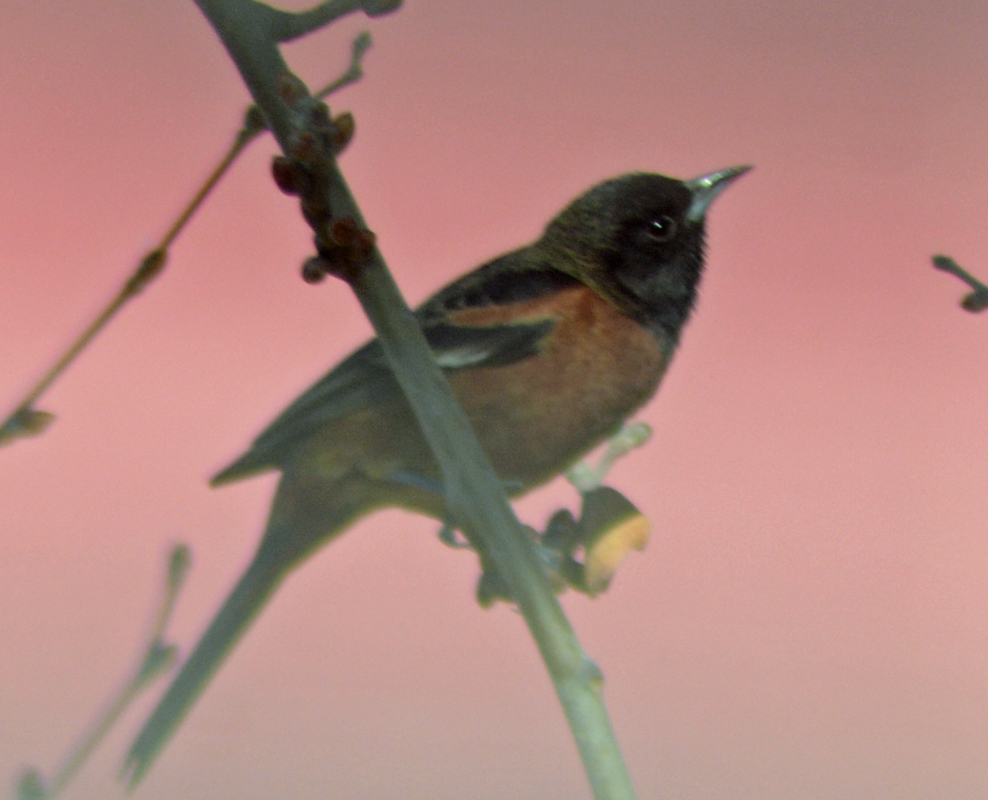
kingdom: Animalia
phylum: Chordata
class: Aves
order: Passeriformes
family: Icteridae
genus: Icterus
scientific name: Icterus spurius
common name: Orchard oriole
